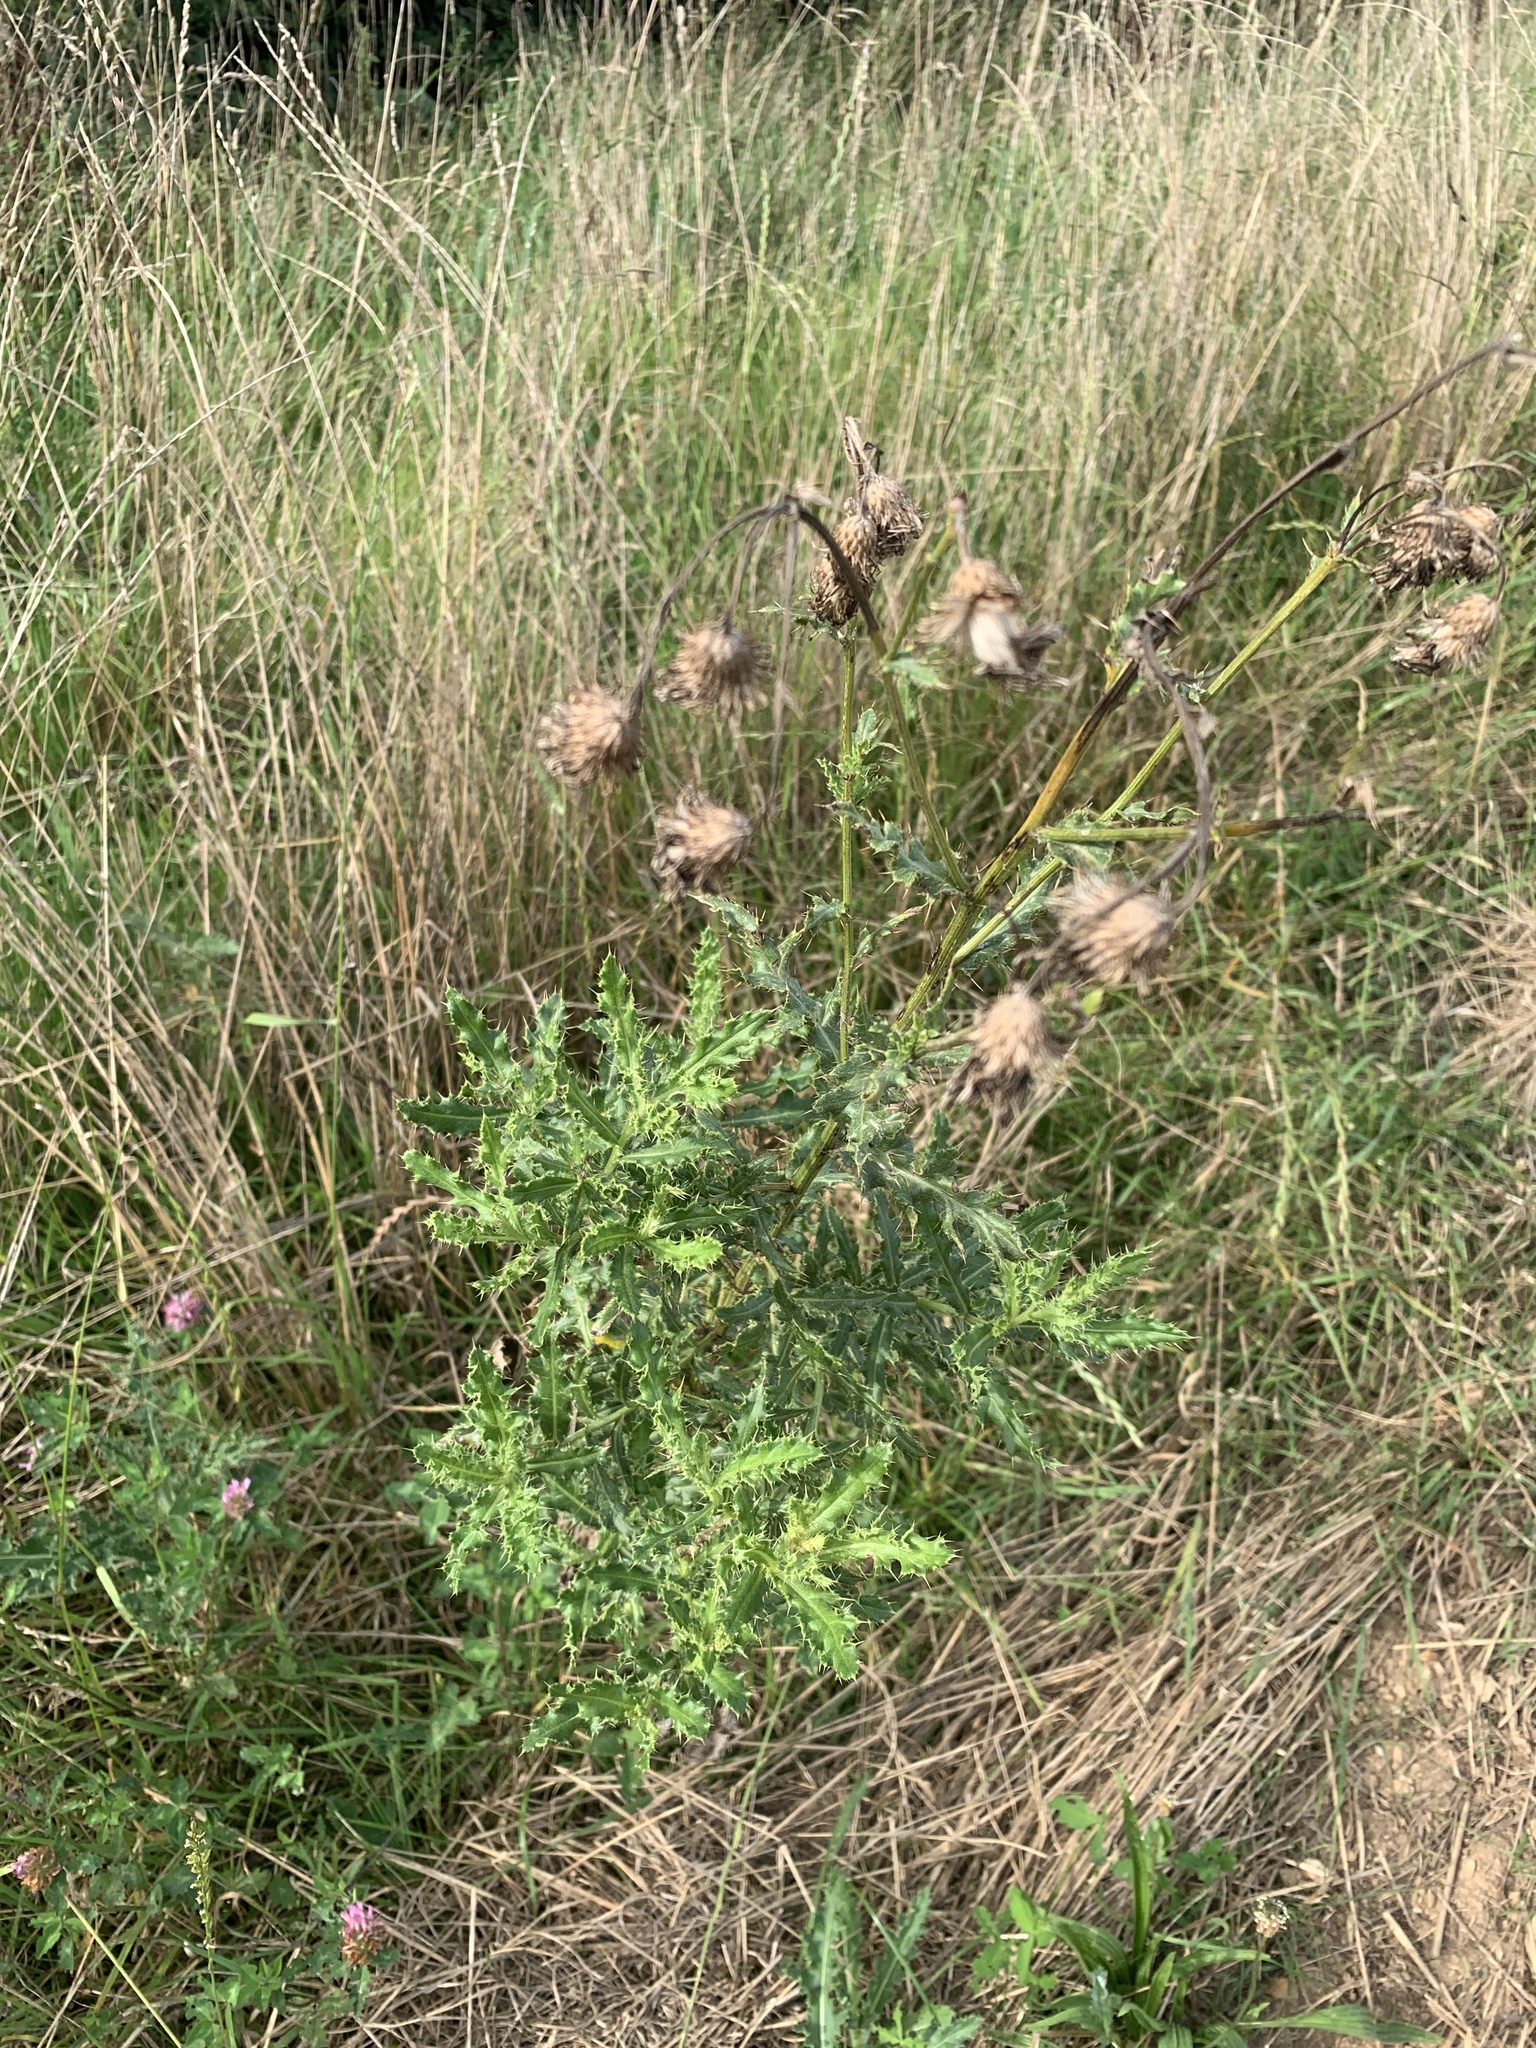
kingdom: Plantae
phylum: Tracheophyta
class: Magnoliopsida
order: Asterales
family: Asteraceae
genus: Cirsium
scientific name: Cirsium arvense
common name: Creeping thistle
